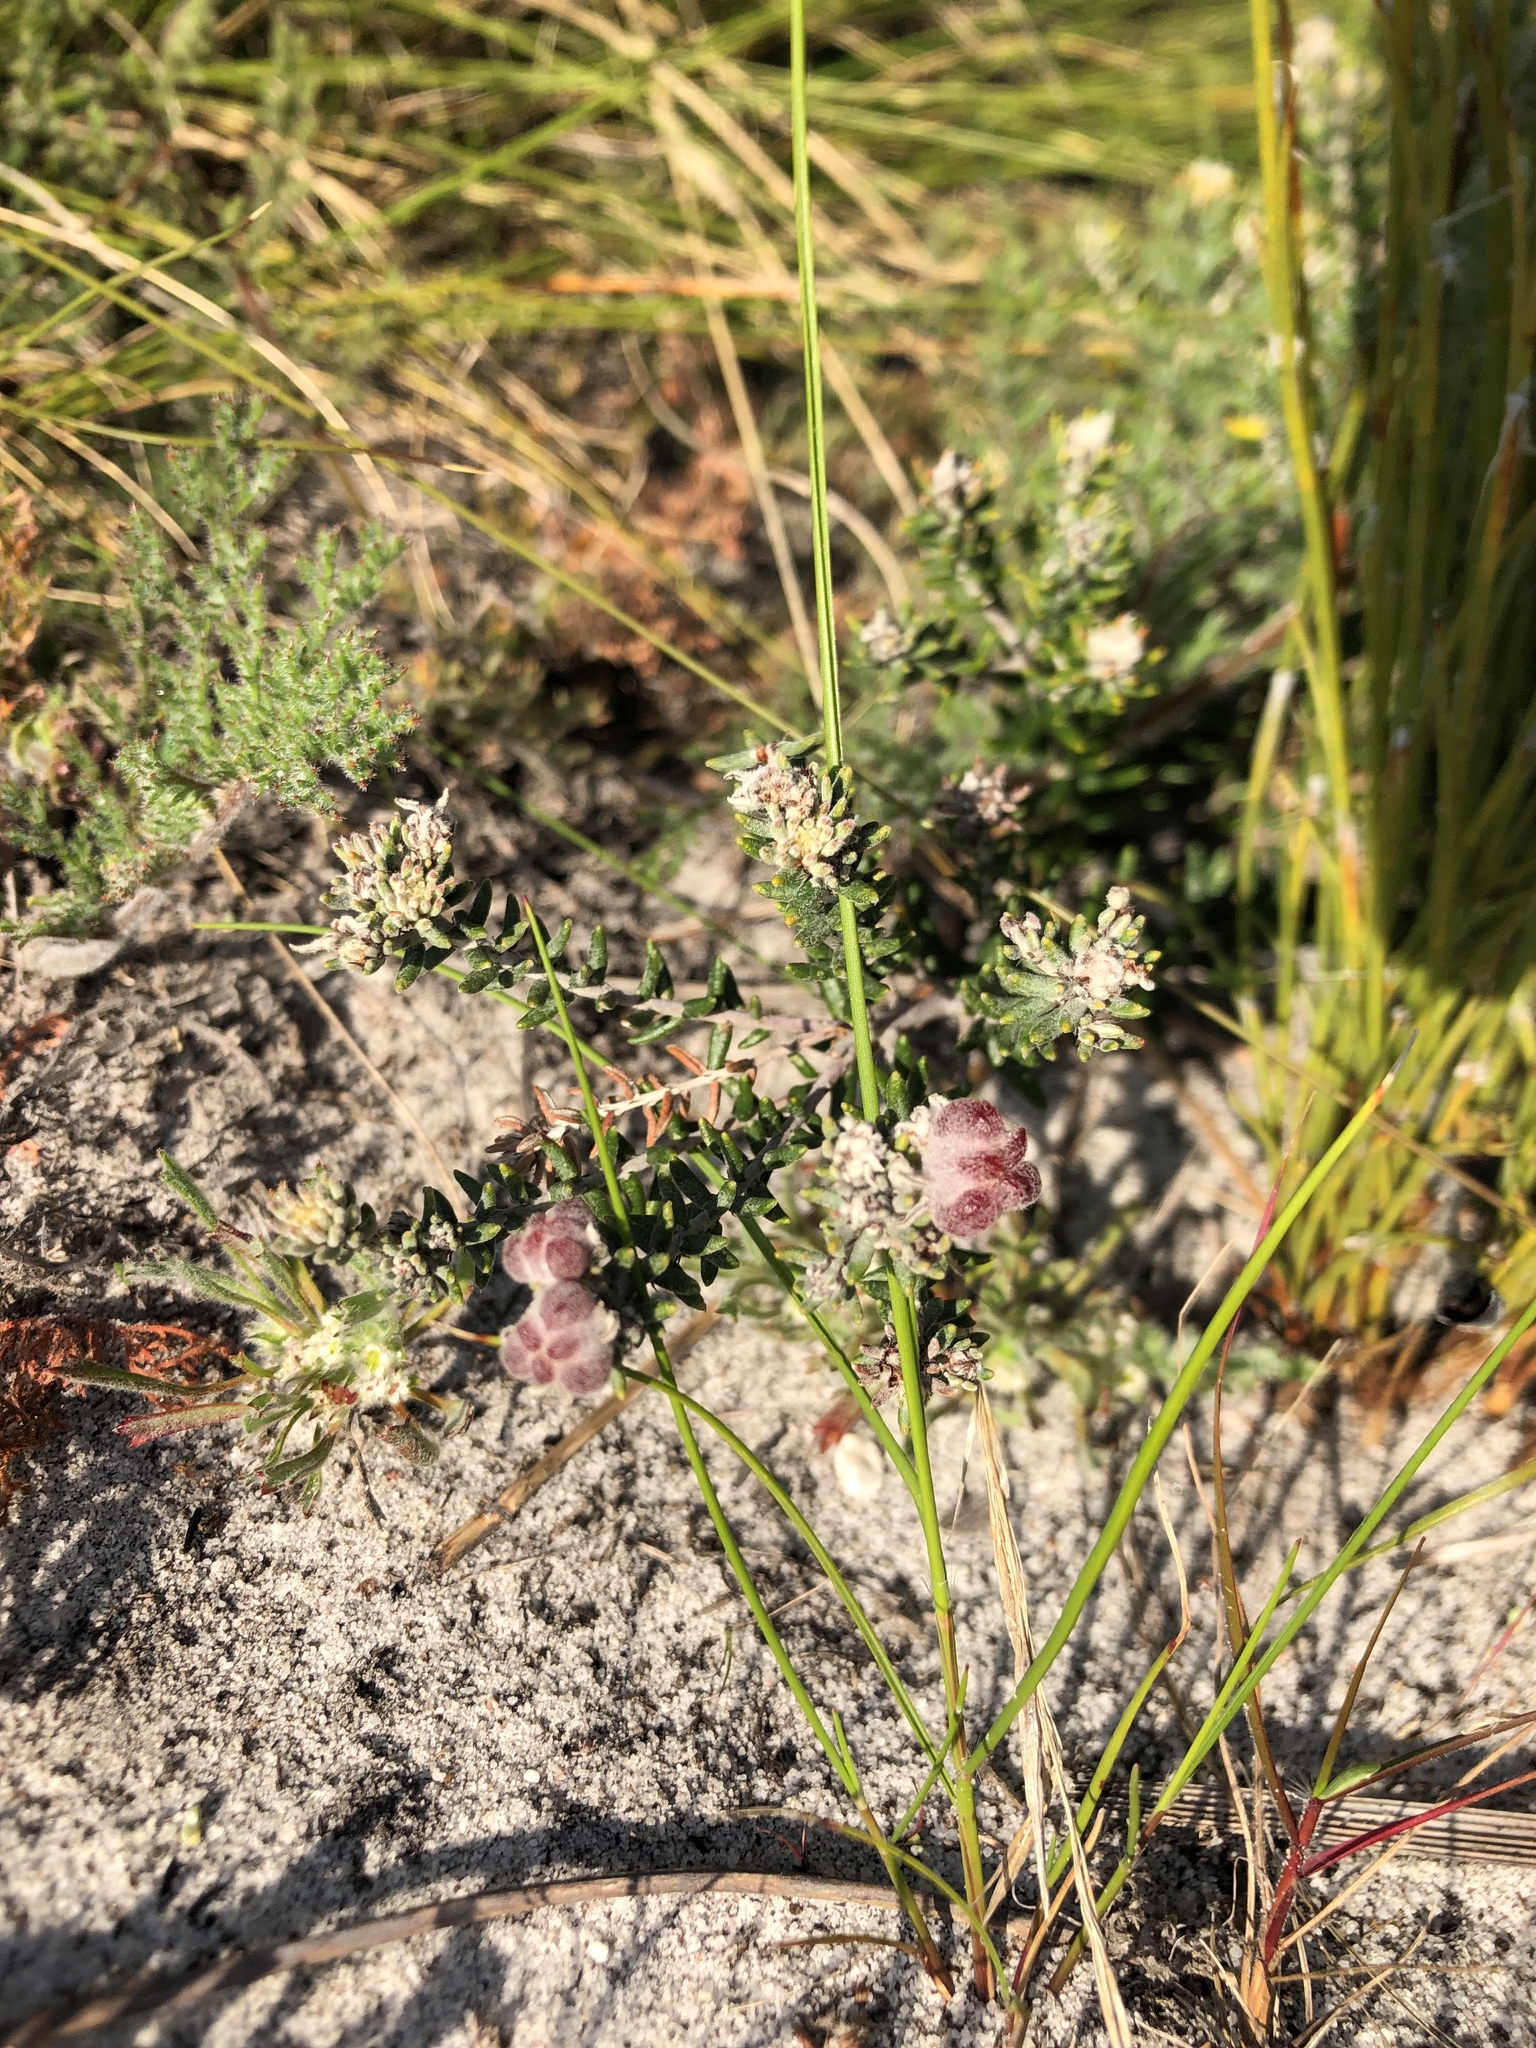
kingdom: Plantae
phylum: Tracheophyta
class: Magnoliopsida
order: Rosales
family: Rhamnaceae
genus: Trichocephalus
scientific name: Trichocephalus stipularis
